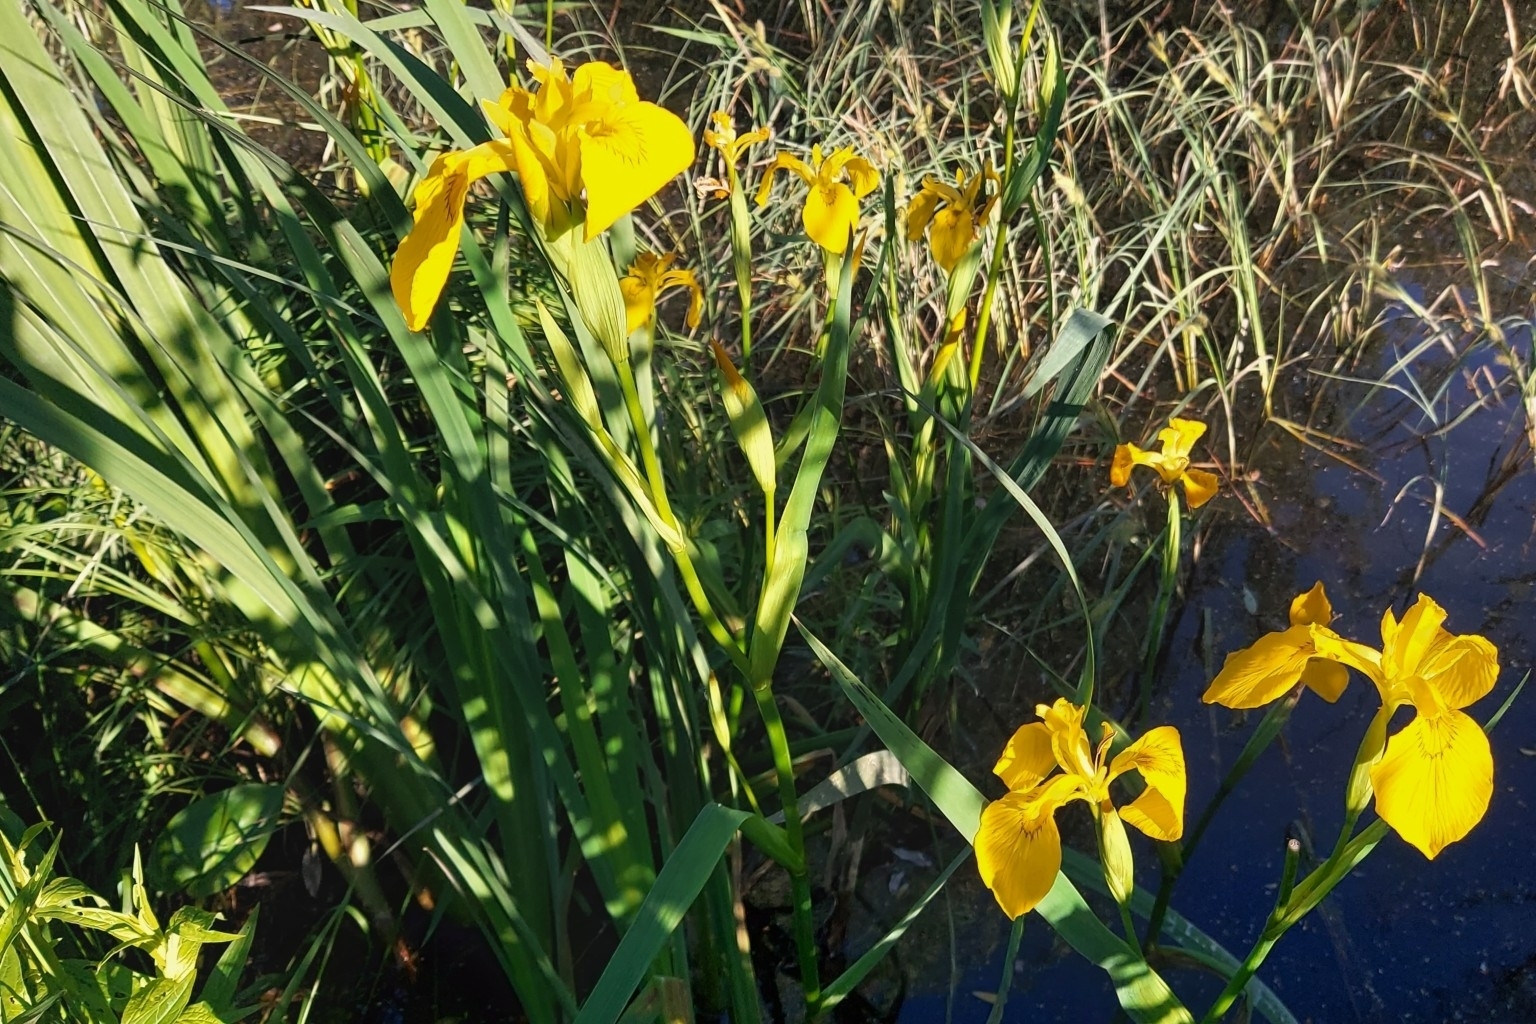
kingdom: Plantae
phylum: Tracheophyta
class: Liliopsida
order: Asparagales
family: Iridaceae
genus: Iris
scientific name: Iris pseudacorus
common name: Yellow flag
